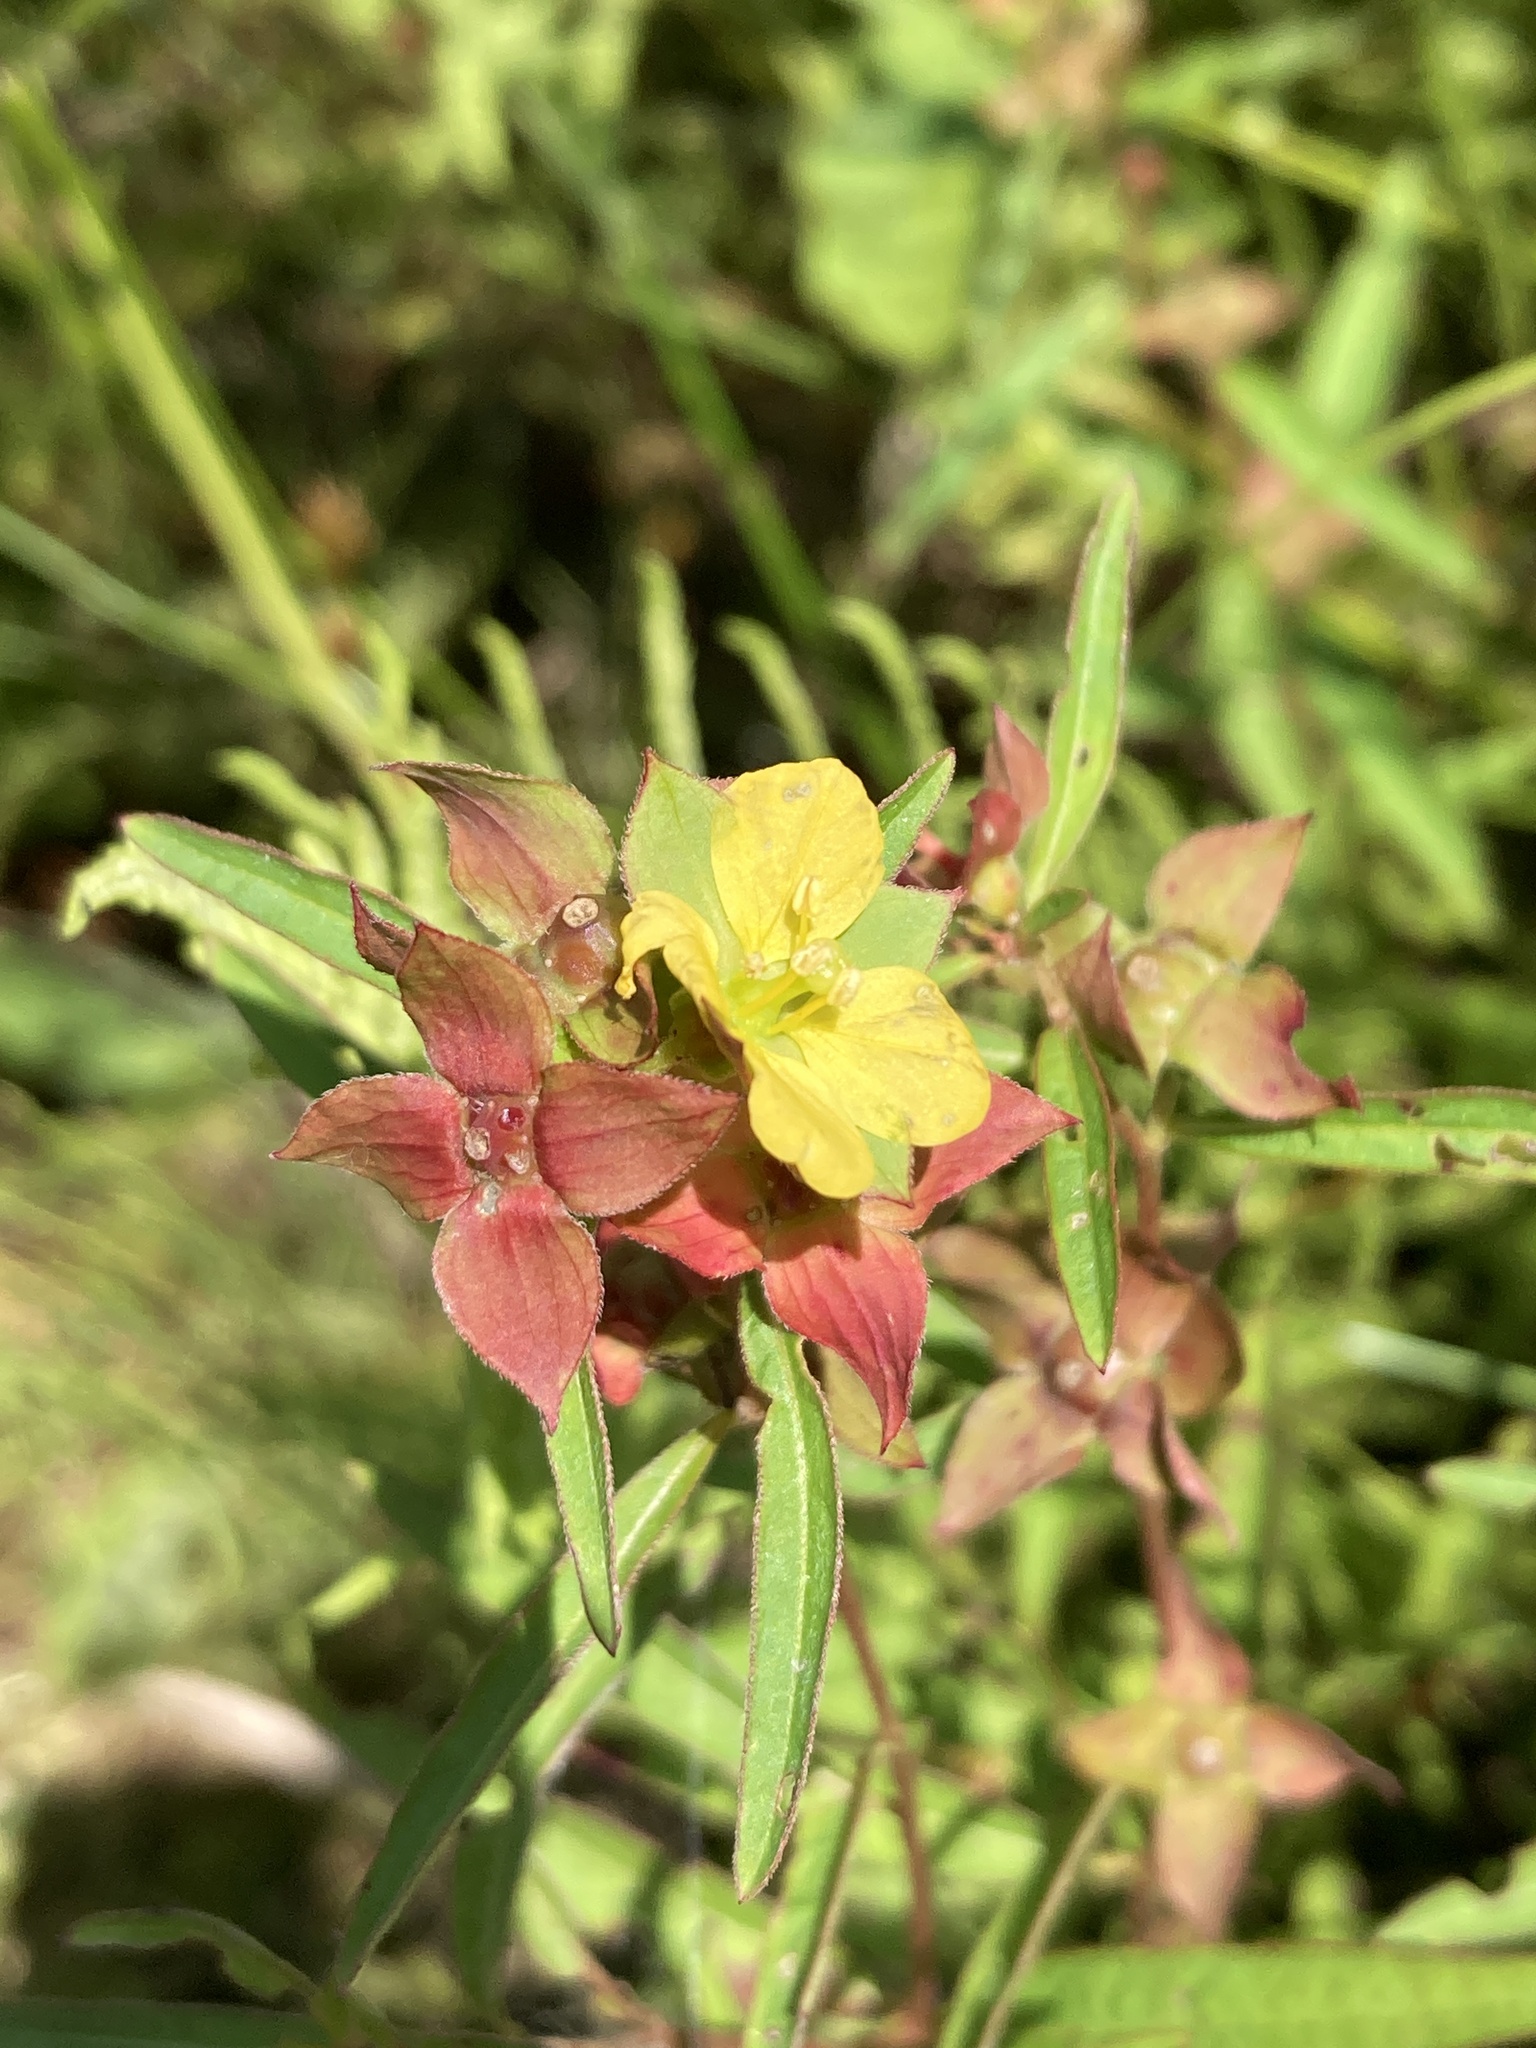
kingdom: Plantae
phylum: Tracheophyta
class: Magnoliopsida
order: Myrtales
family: Onagraceae
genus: Ludwigia
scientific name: Ludwigia alternifolia
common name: Rattlebox
